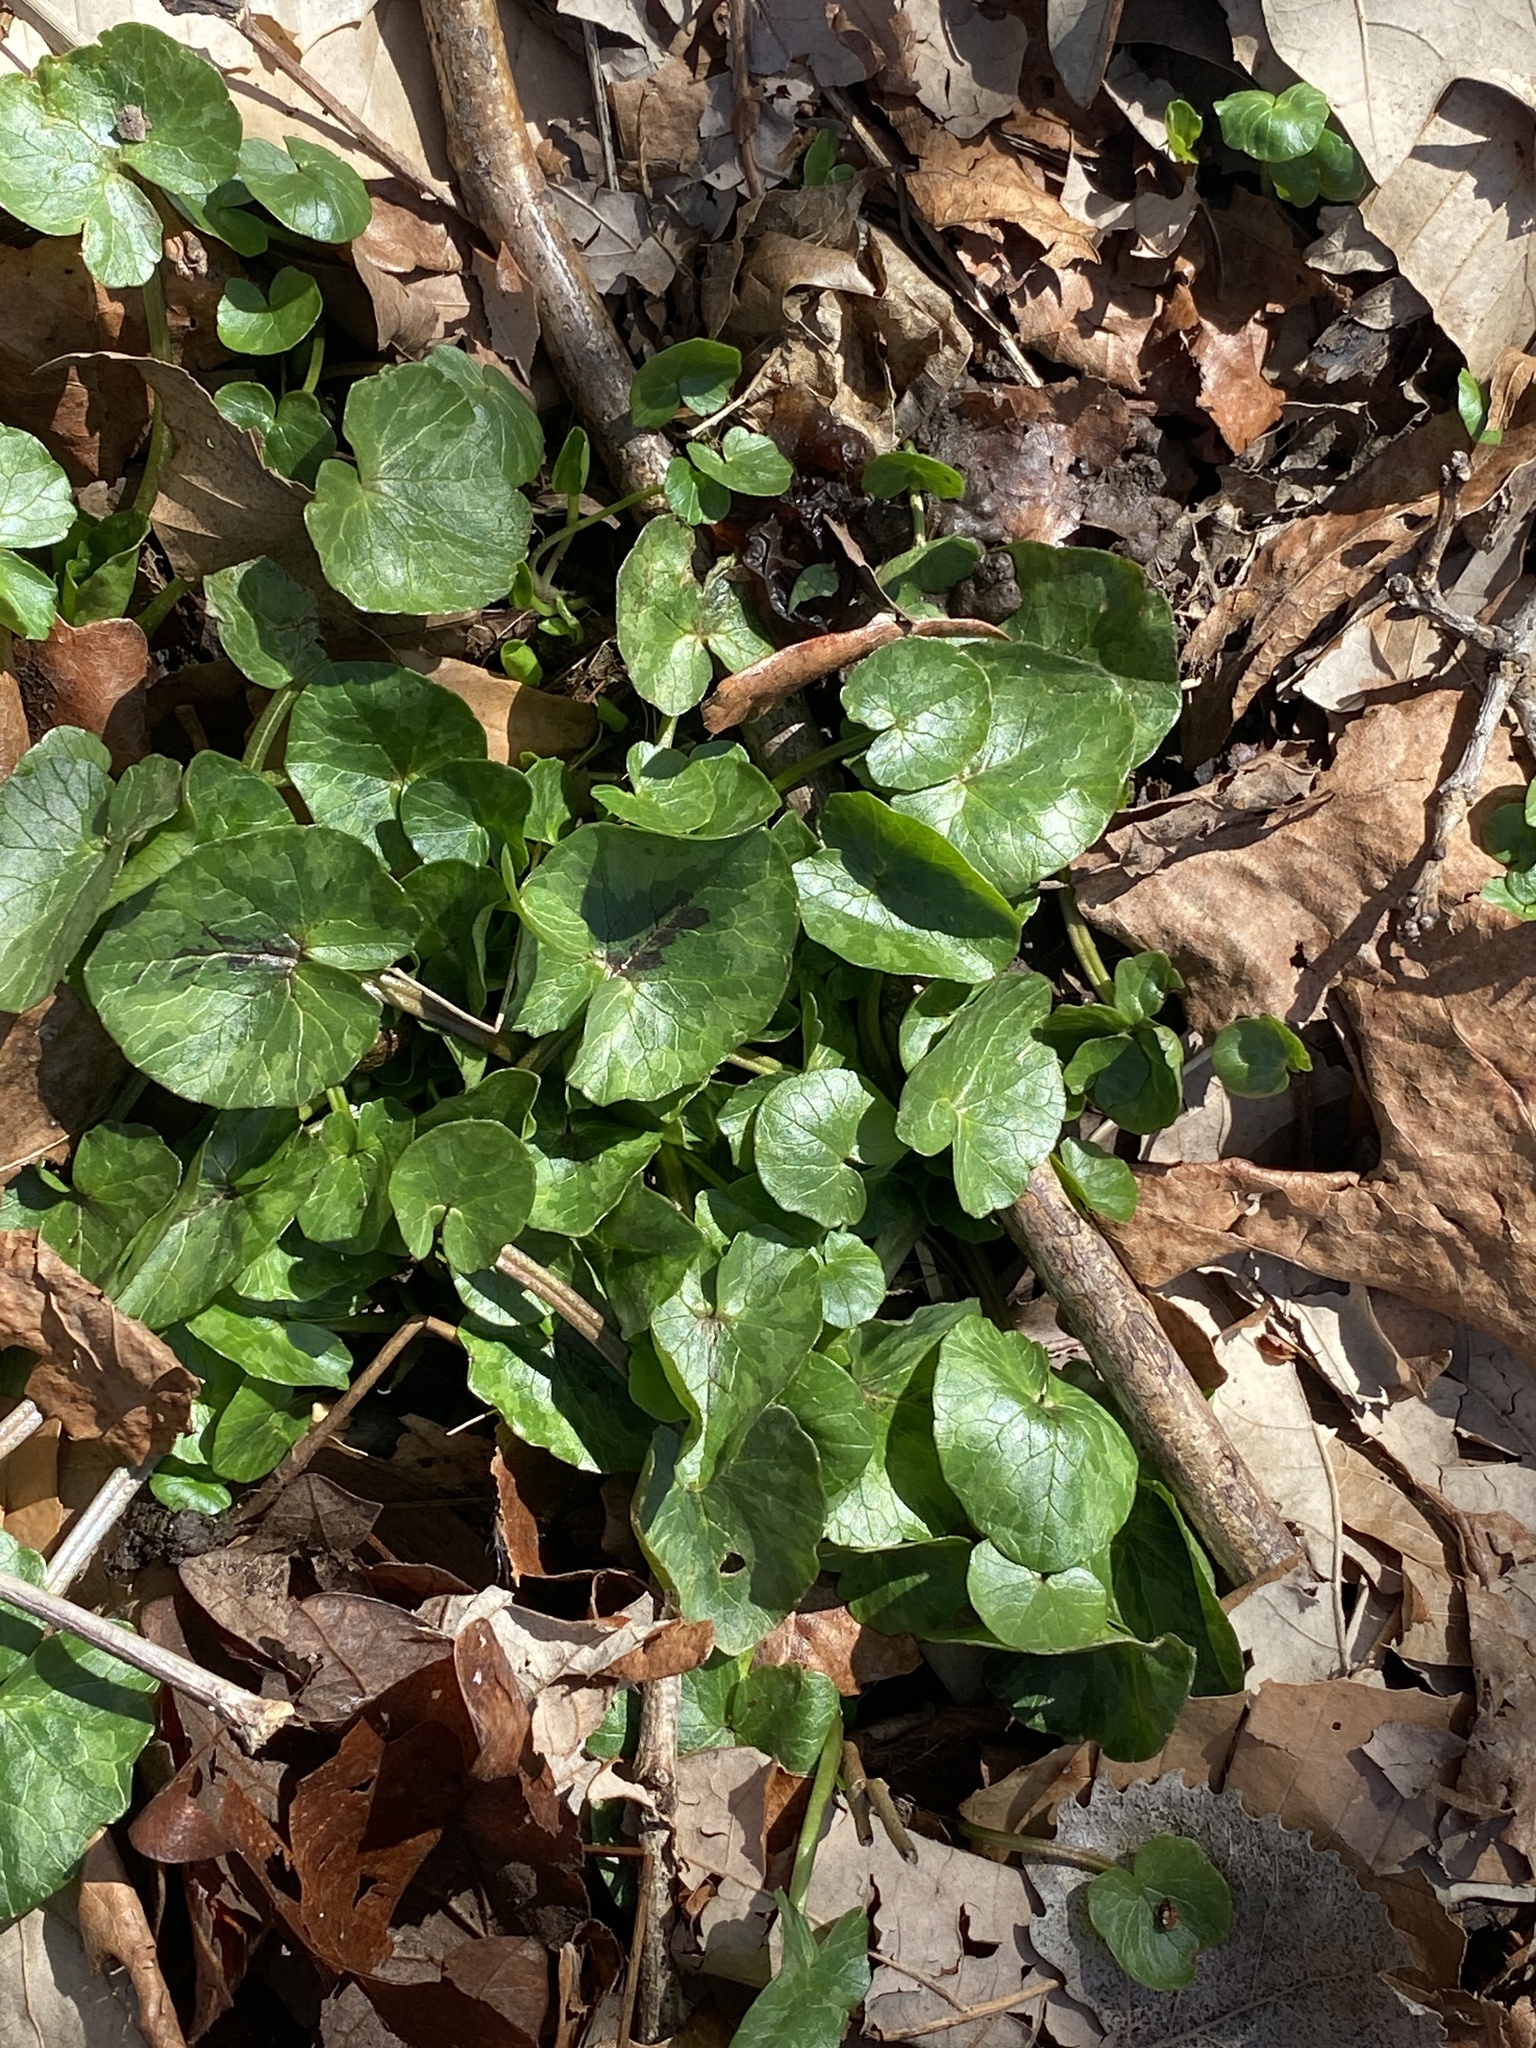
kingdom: Plantae
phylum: Tracheophyta
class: Magnoliopsida
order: Ranunculales
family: Ranunculaceae
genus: Ficaria
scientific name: Ficaria verna
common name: Lesser celandine
